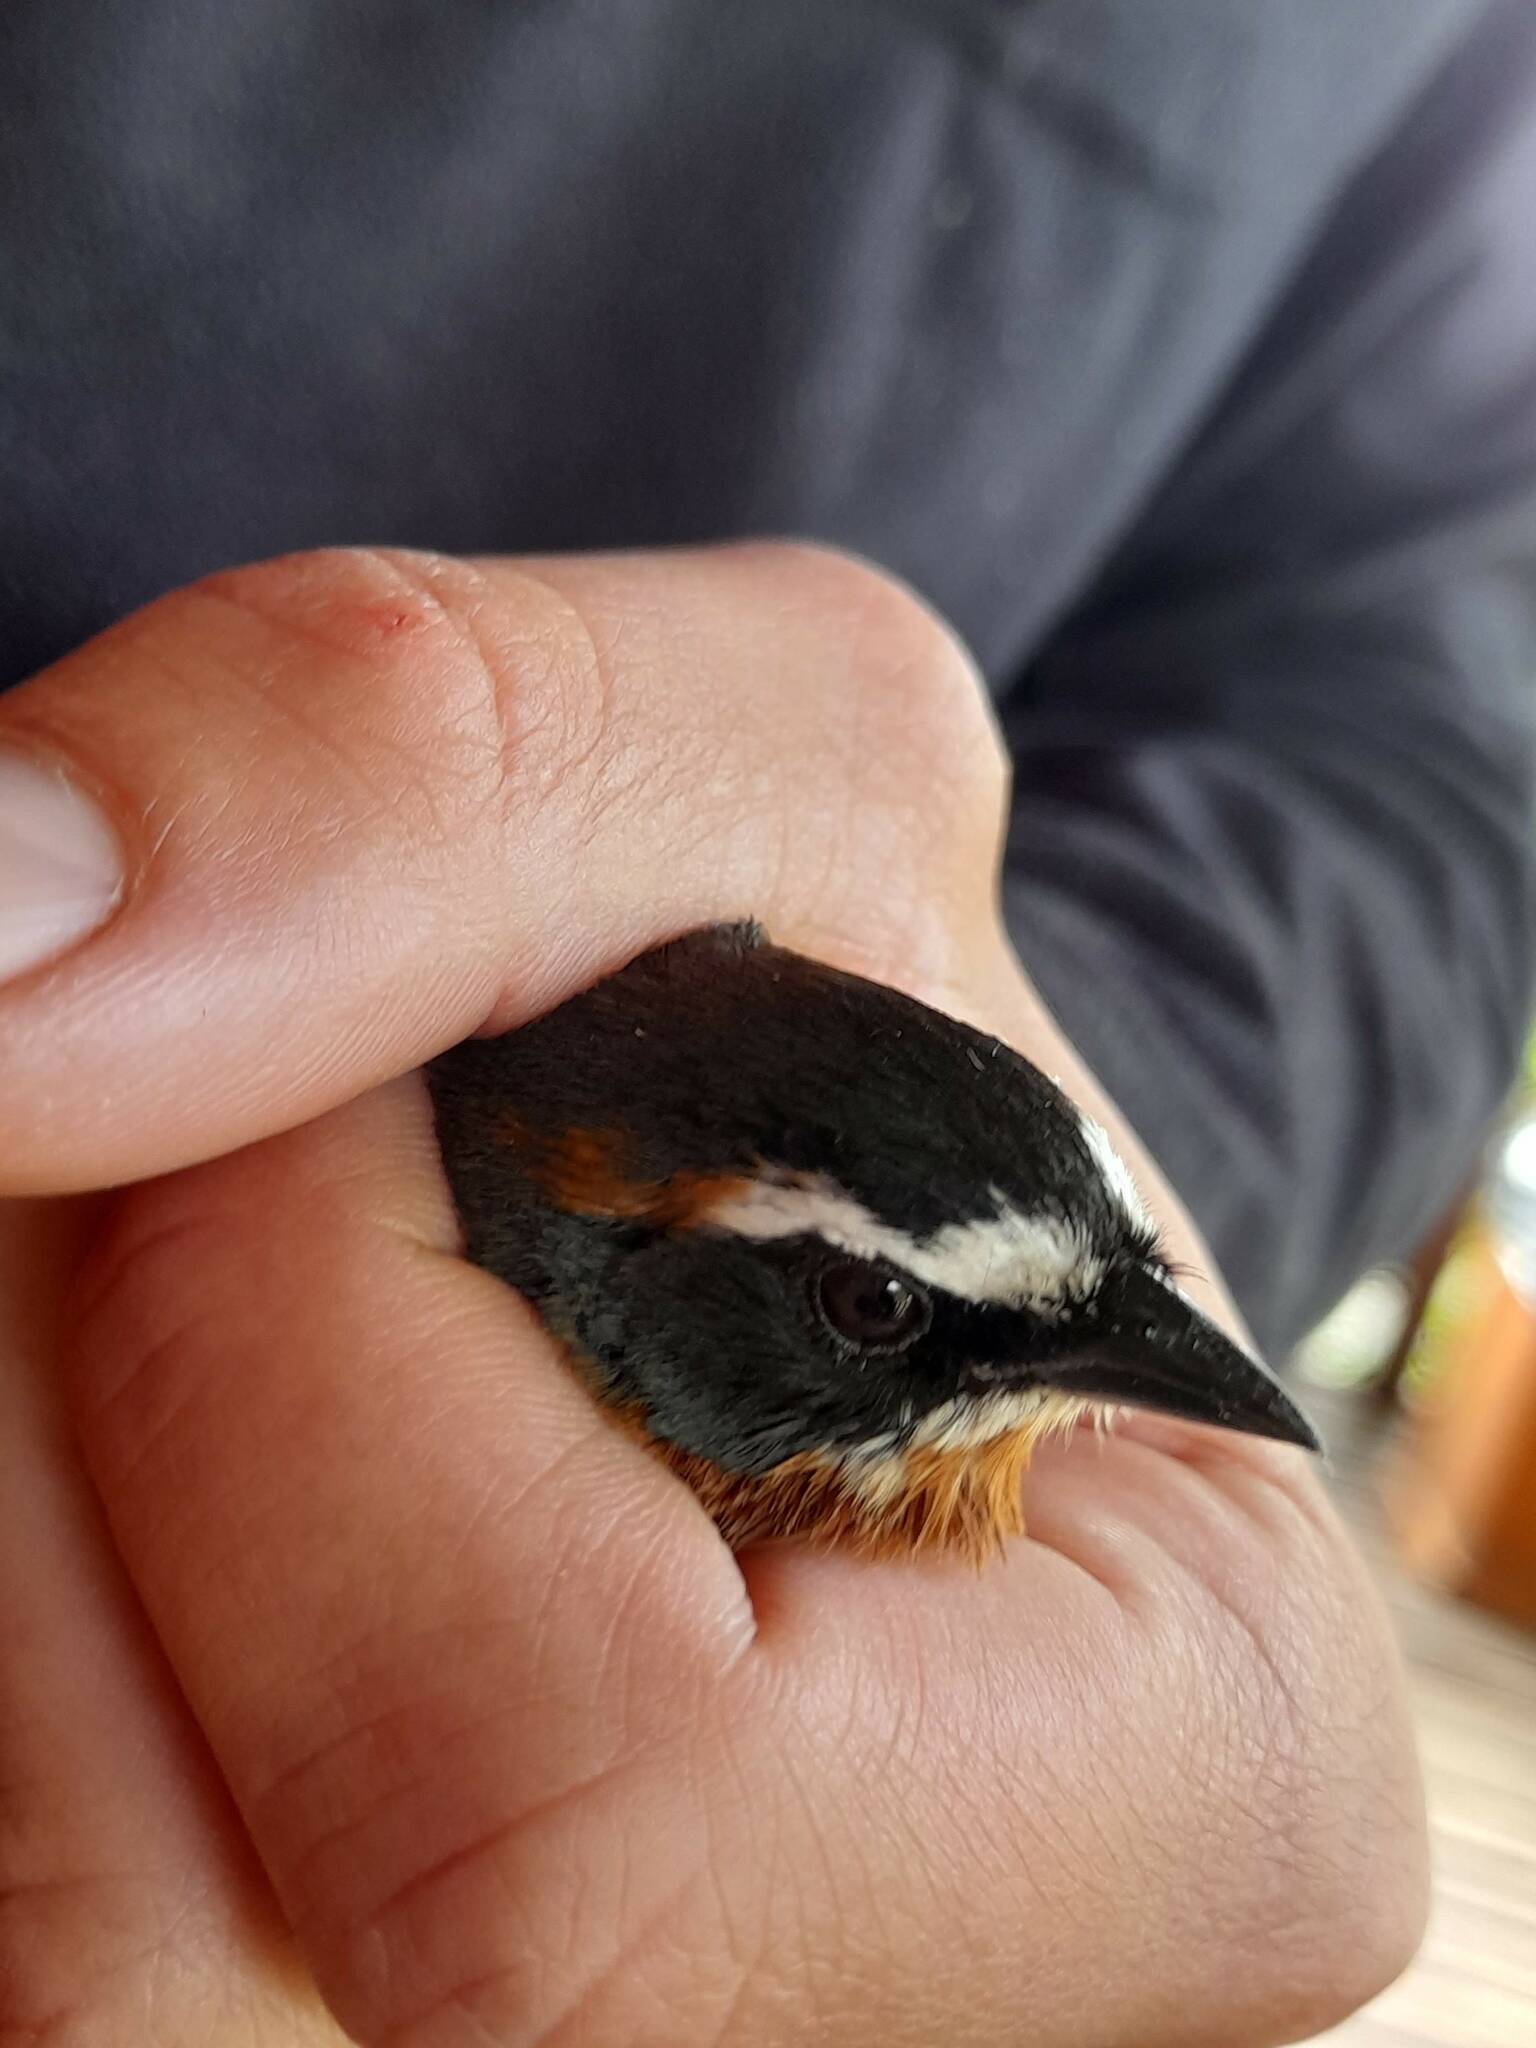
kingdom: Animalia
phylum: Chordata
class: Aves
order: Passeriformes
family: Thraupidae
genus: Poospiza
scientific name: Poospiza nigrorufa
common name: Black-and-rufous warbling finch
